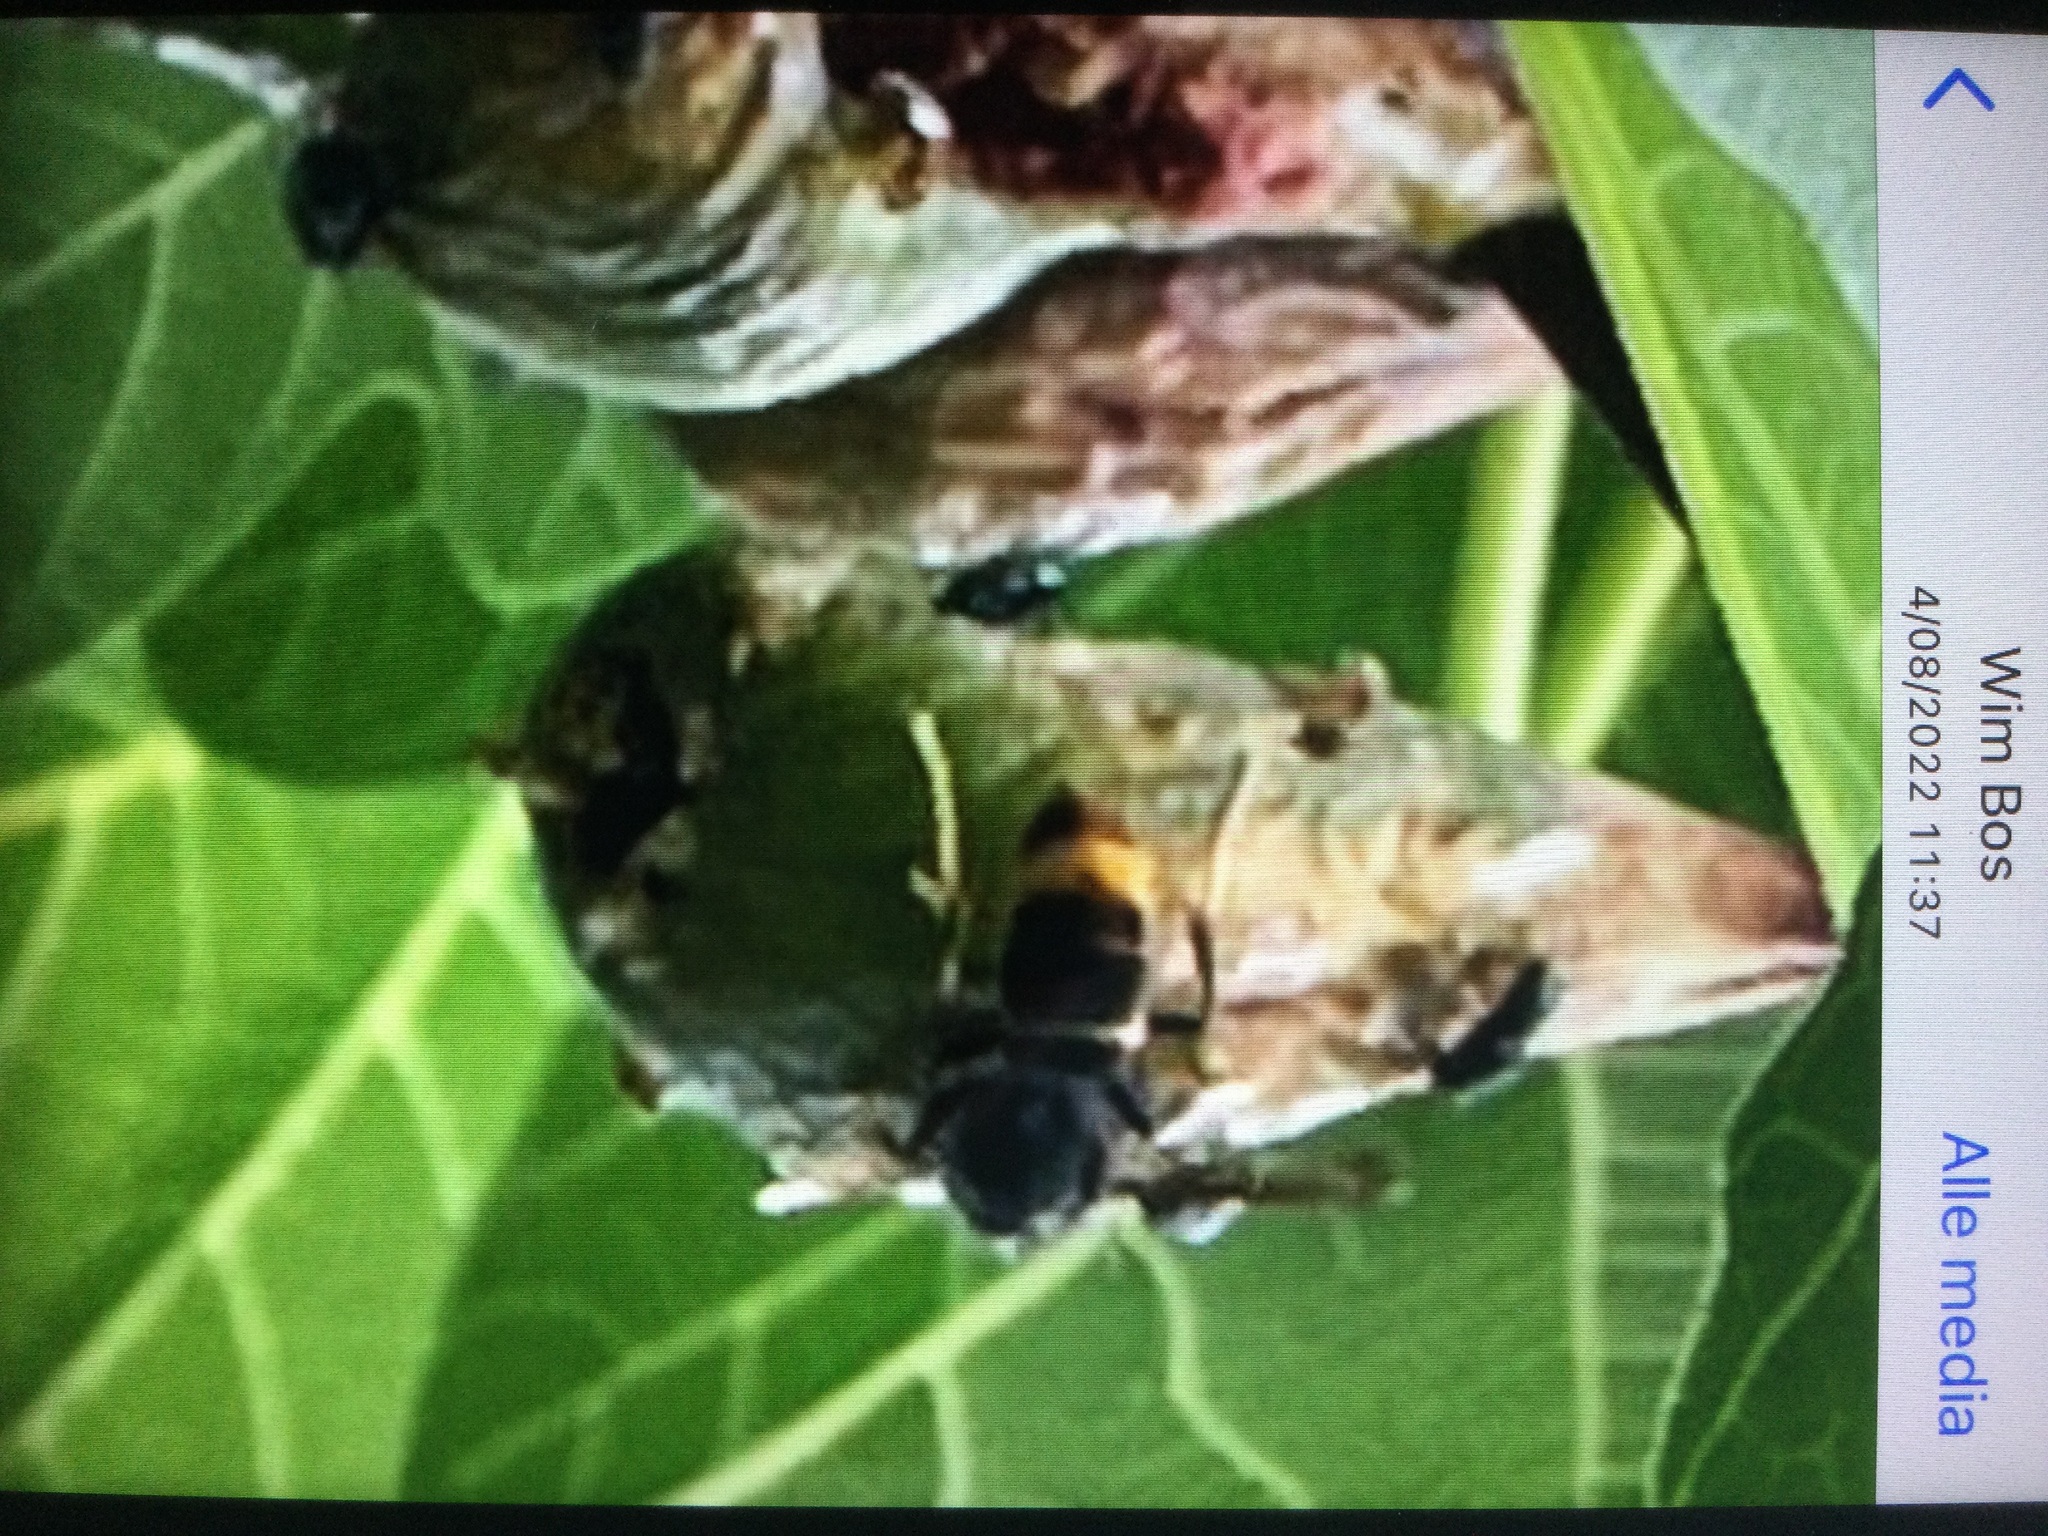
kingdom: Animalia
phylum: Arthropoda
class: Insecta
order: Hymenoptera
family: Vespidae
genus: Vespa
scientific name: Vespa velutina
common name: Asian hornet
